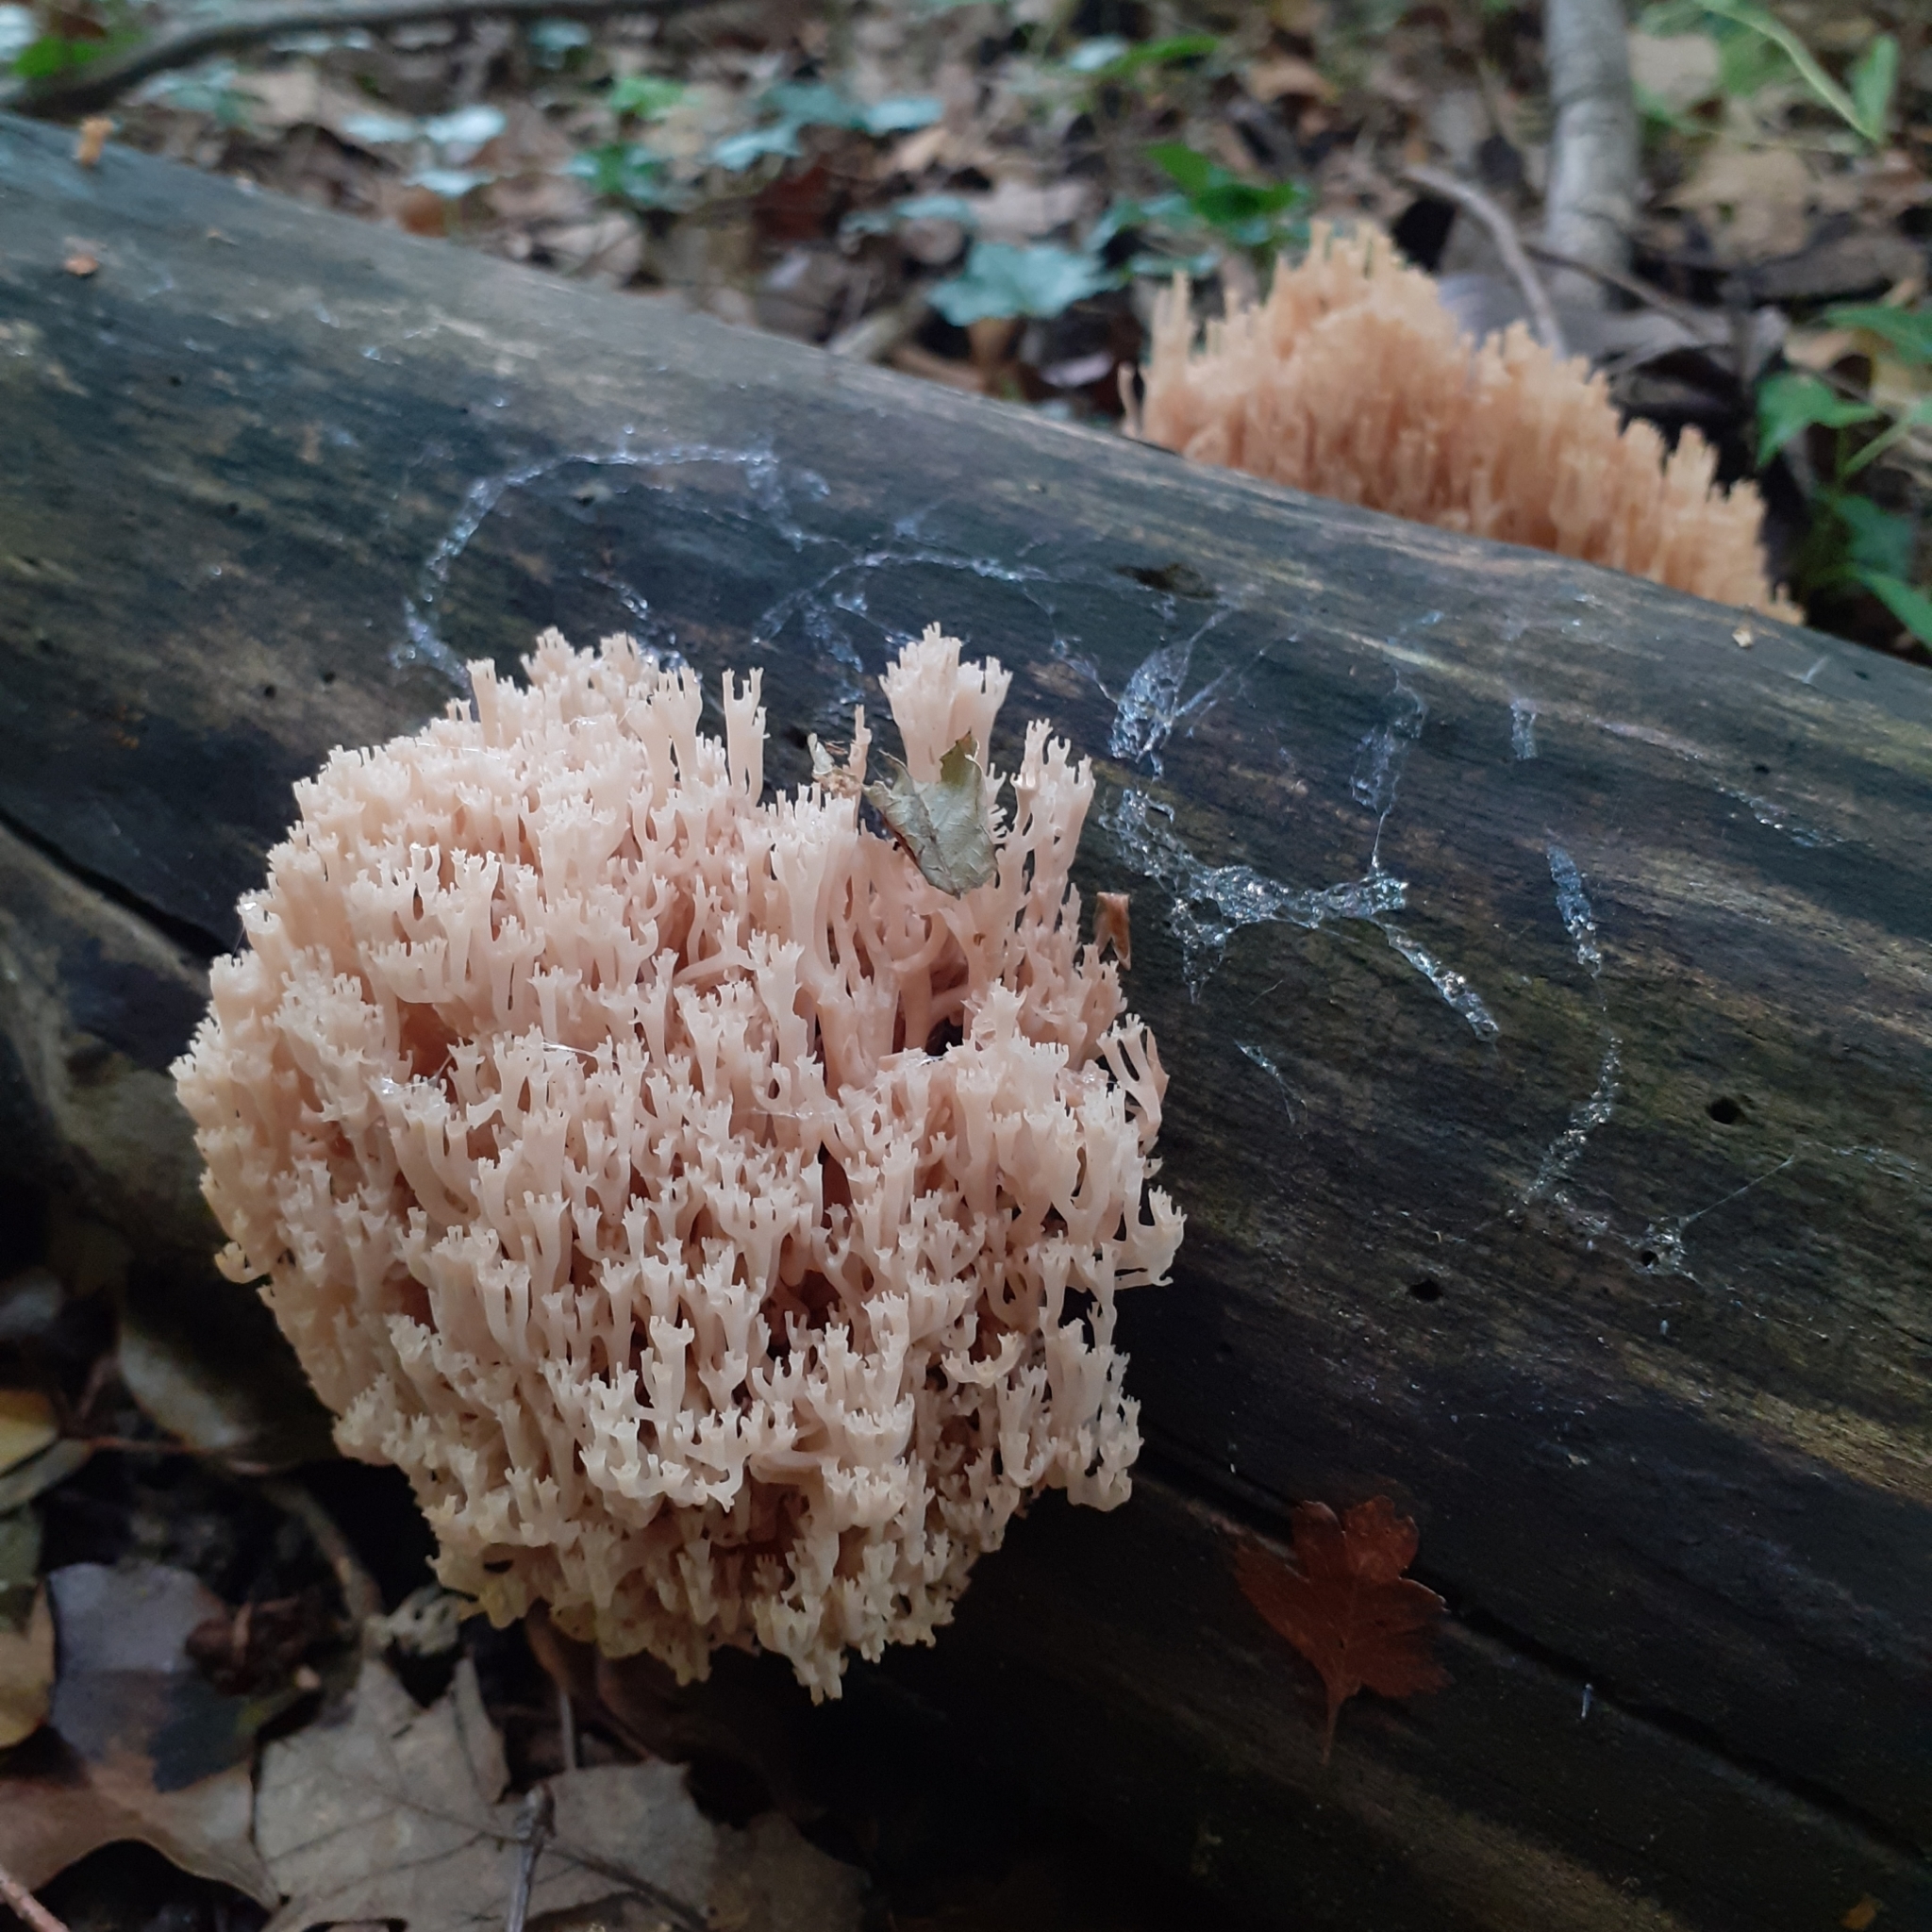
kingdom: Fungi
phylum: Basidiomycota
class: Agaricomycetes
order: Russulales
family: Auriscalpiaceae
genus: Artomyces
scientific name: Artomyces pyxidatus
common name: Crown-tipped coral fungus
